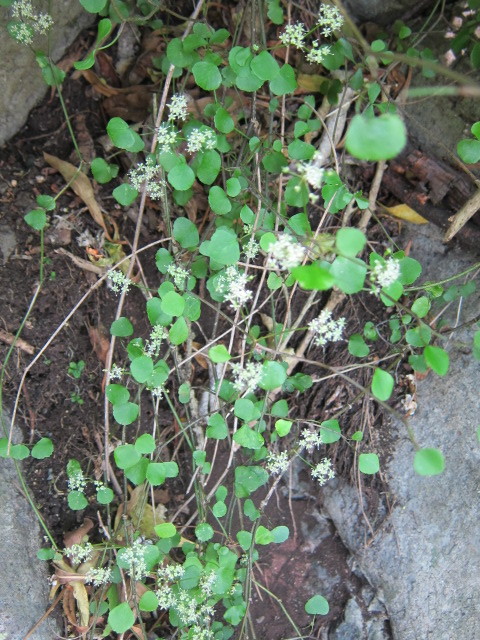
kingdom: Plantae
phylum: Tracheophyta
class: Magnoliopsida
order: Apiales
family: Apiaceae
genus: Scandia
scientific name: Scandia geniculata
